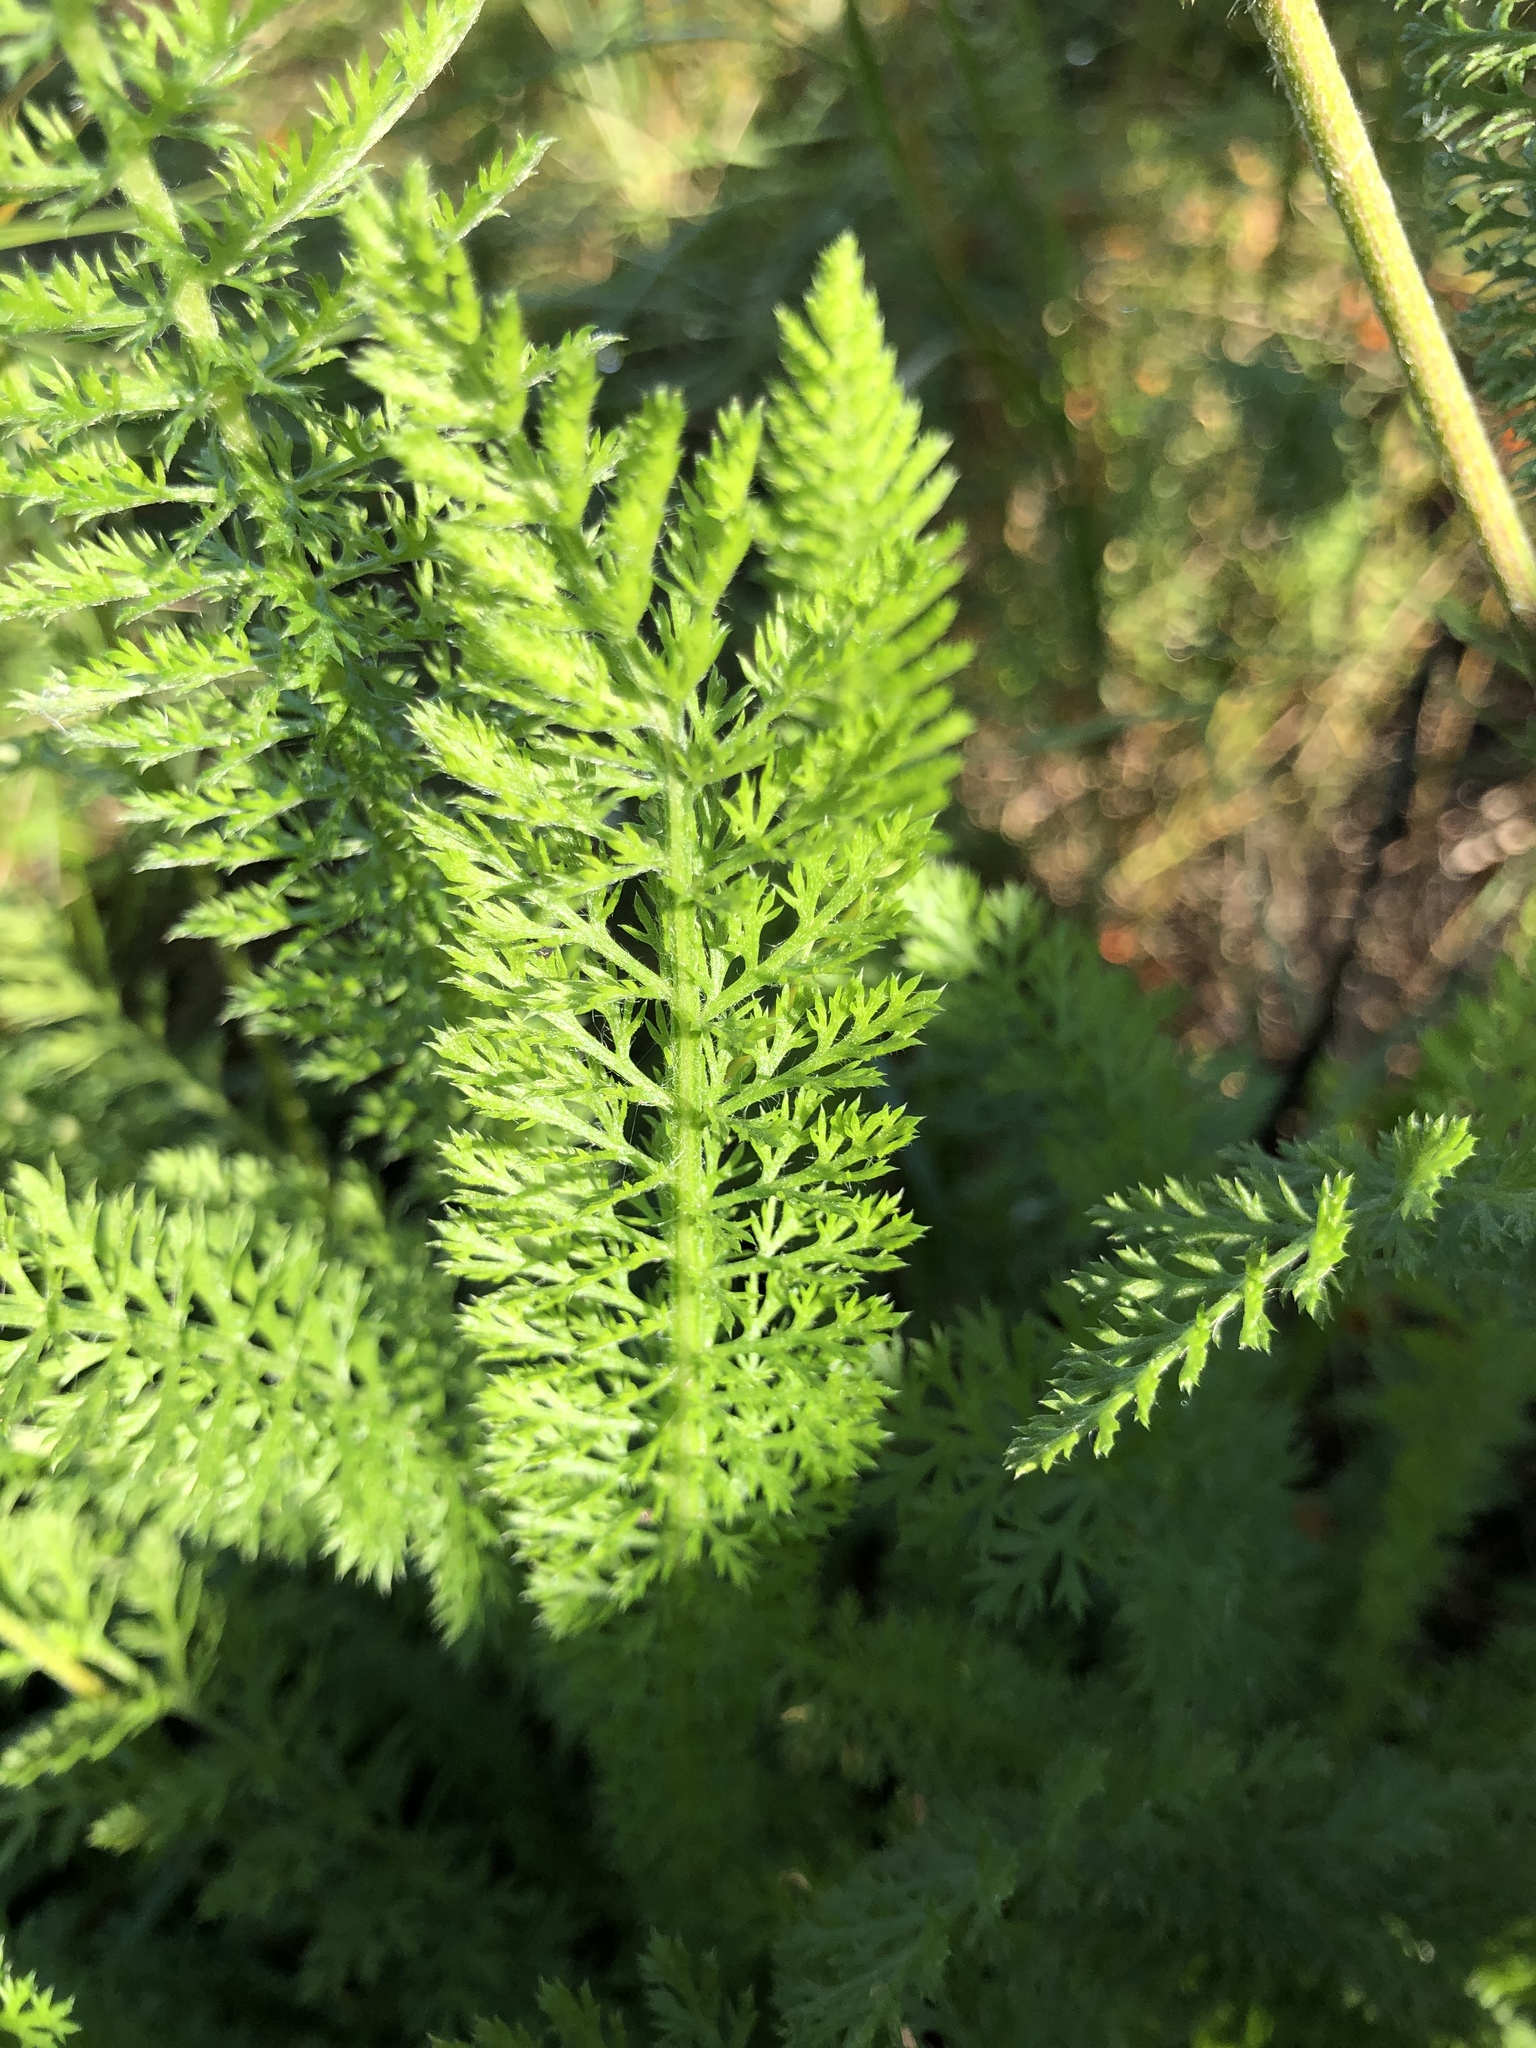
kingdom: Plantae
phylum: Tracheophyta
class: Magnoliopsida
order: Asterales
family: Asteraceae
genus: Achillea
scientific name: Achillea asiatica
